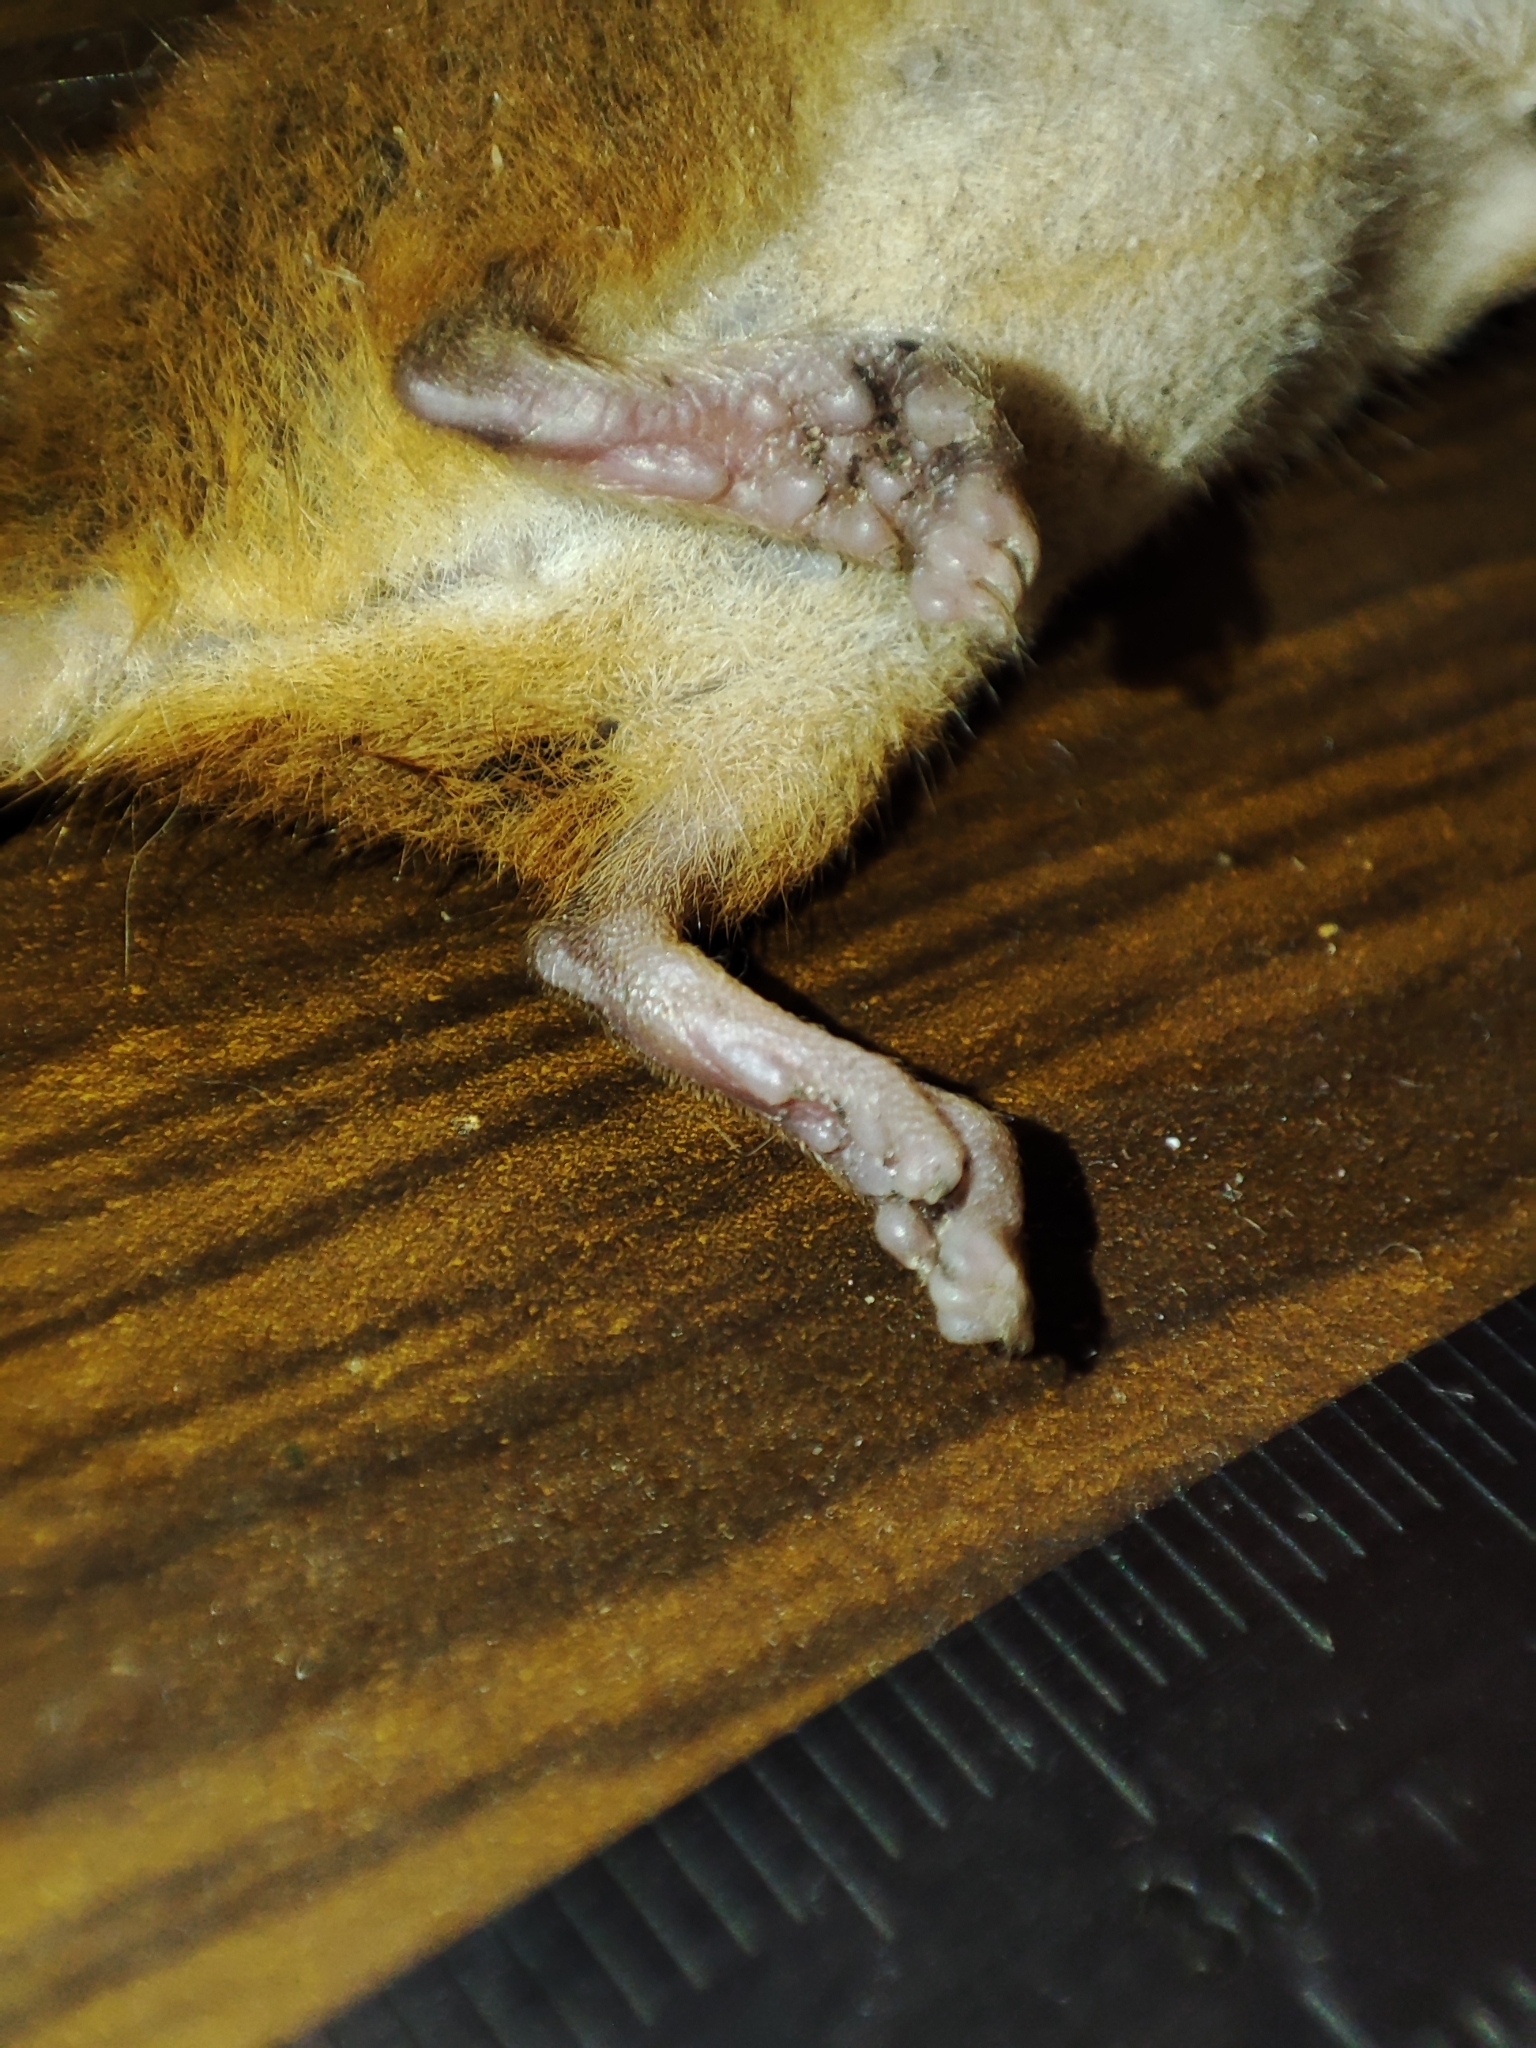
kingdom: Animalia
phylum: Chordata
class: Mammalia
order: Rodentia
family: Muridae
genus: Micromys
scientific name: Micromys minutus
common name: Harvest mouse
